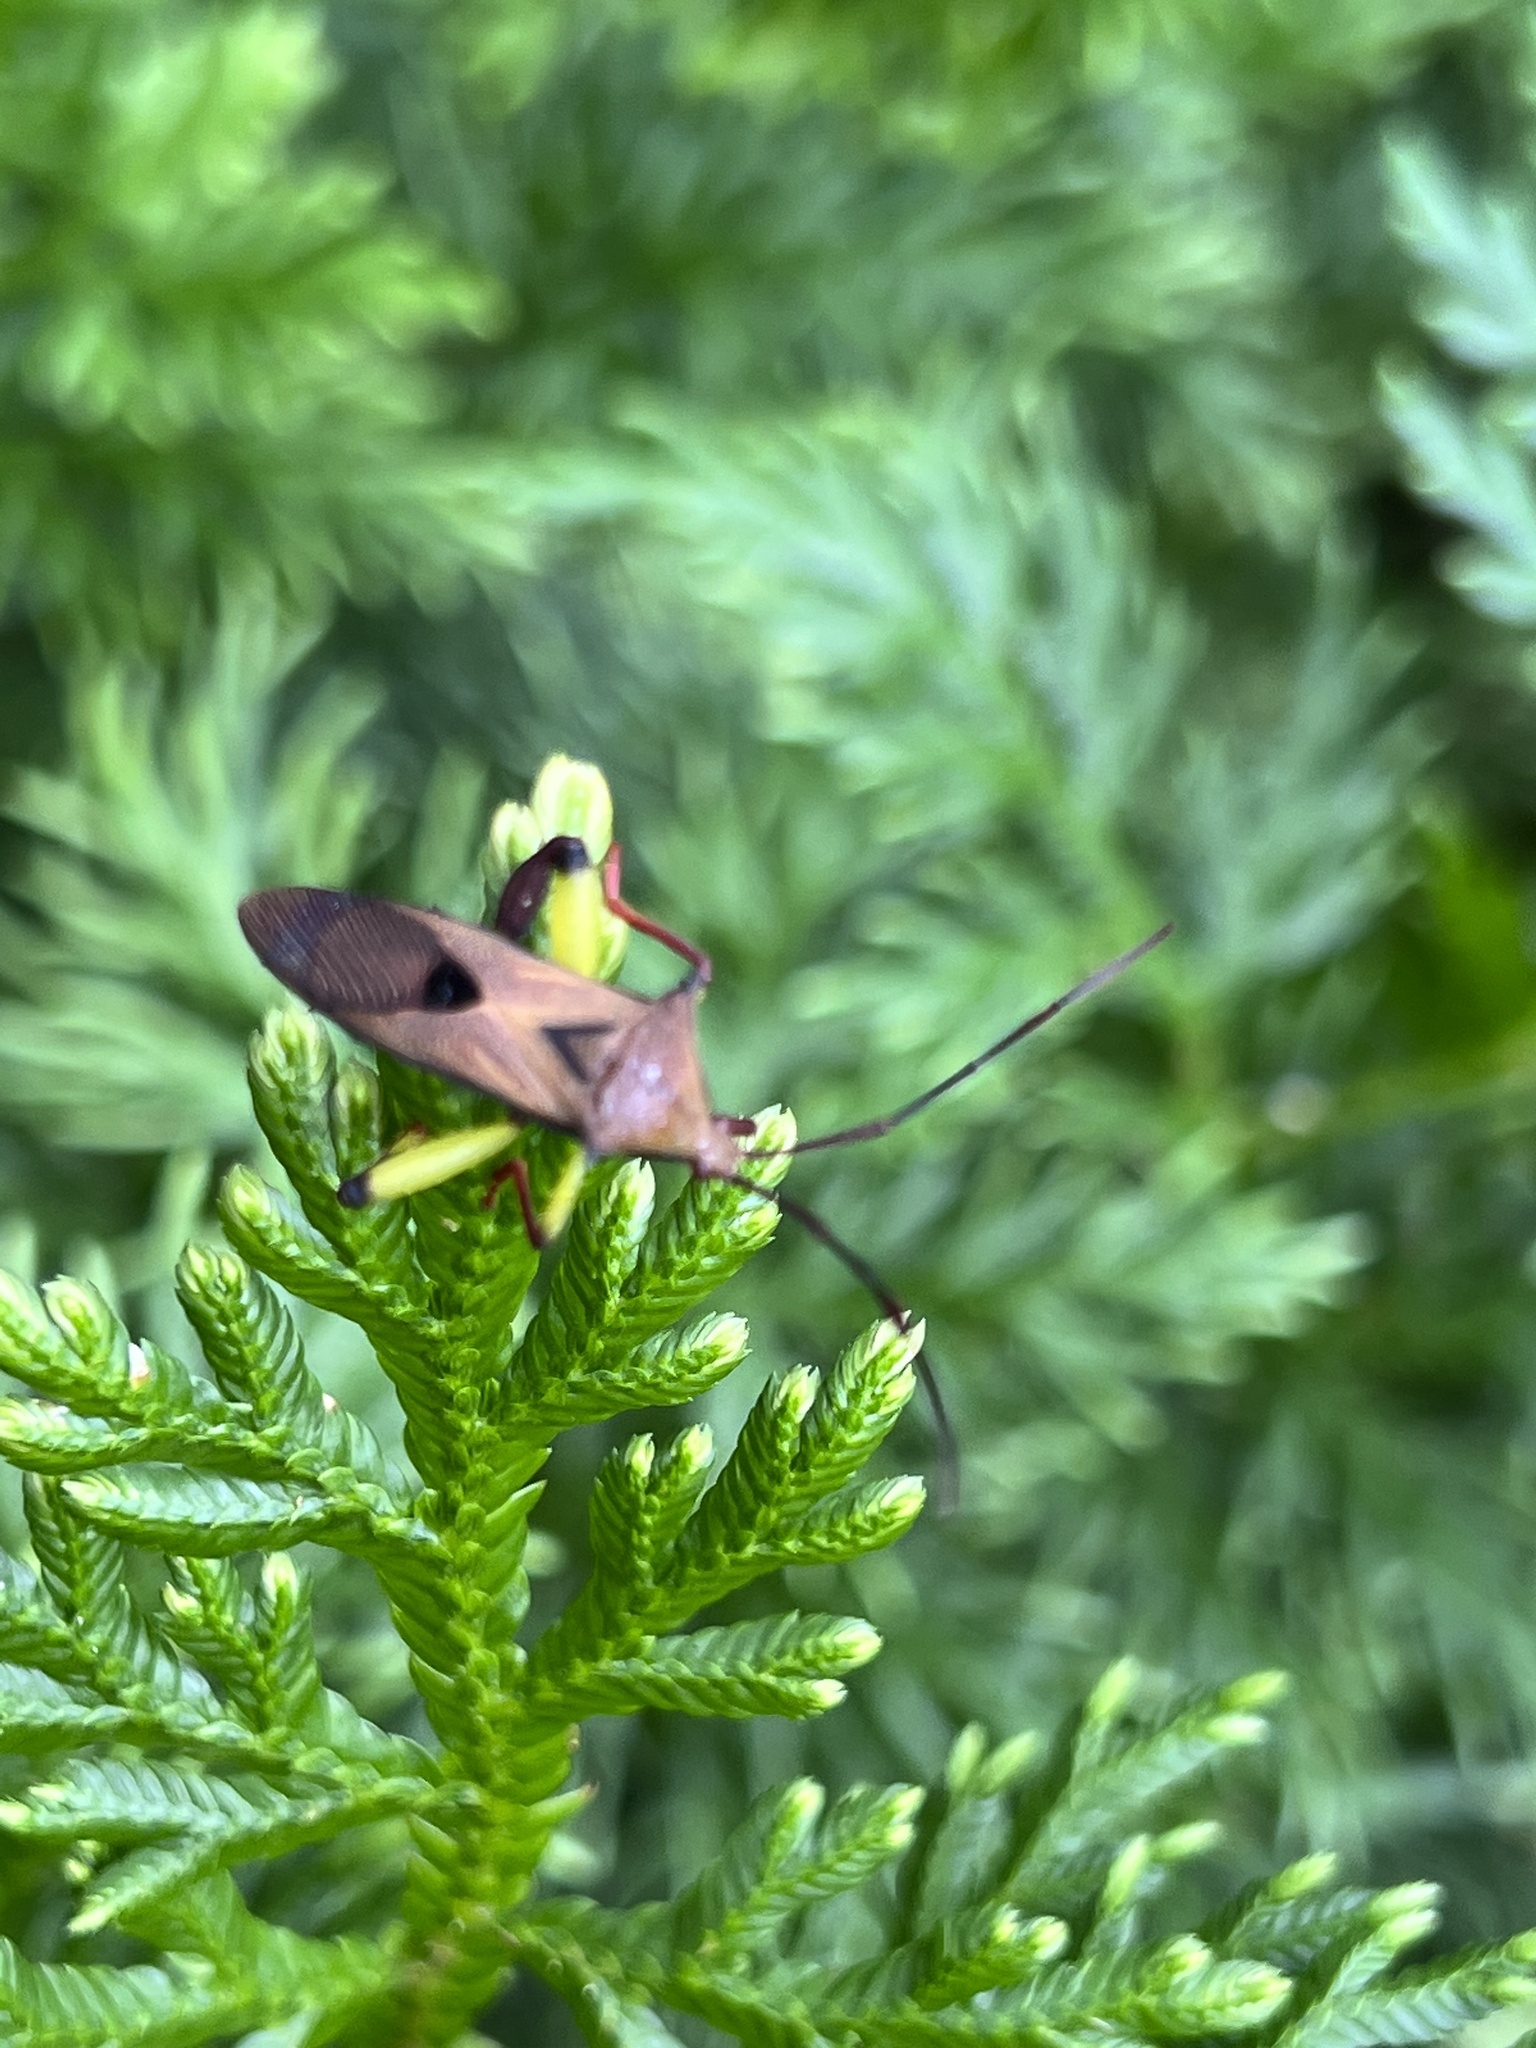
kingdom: Animalia
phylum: Arthropoda
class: Insecta
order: Hemiptera
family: Coreidae
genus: Melucha
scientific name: Melucha biolleyi
